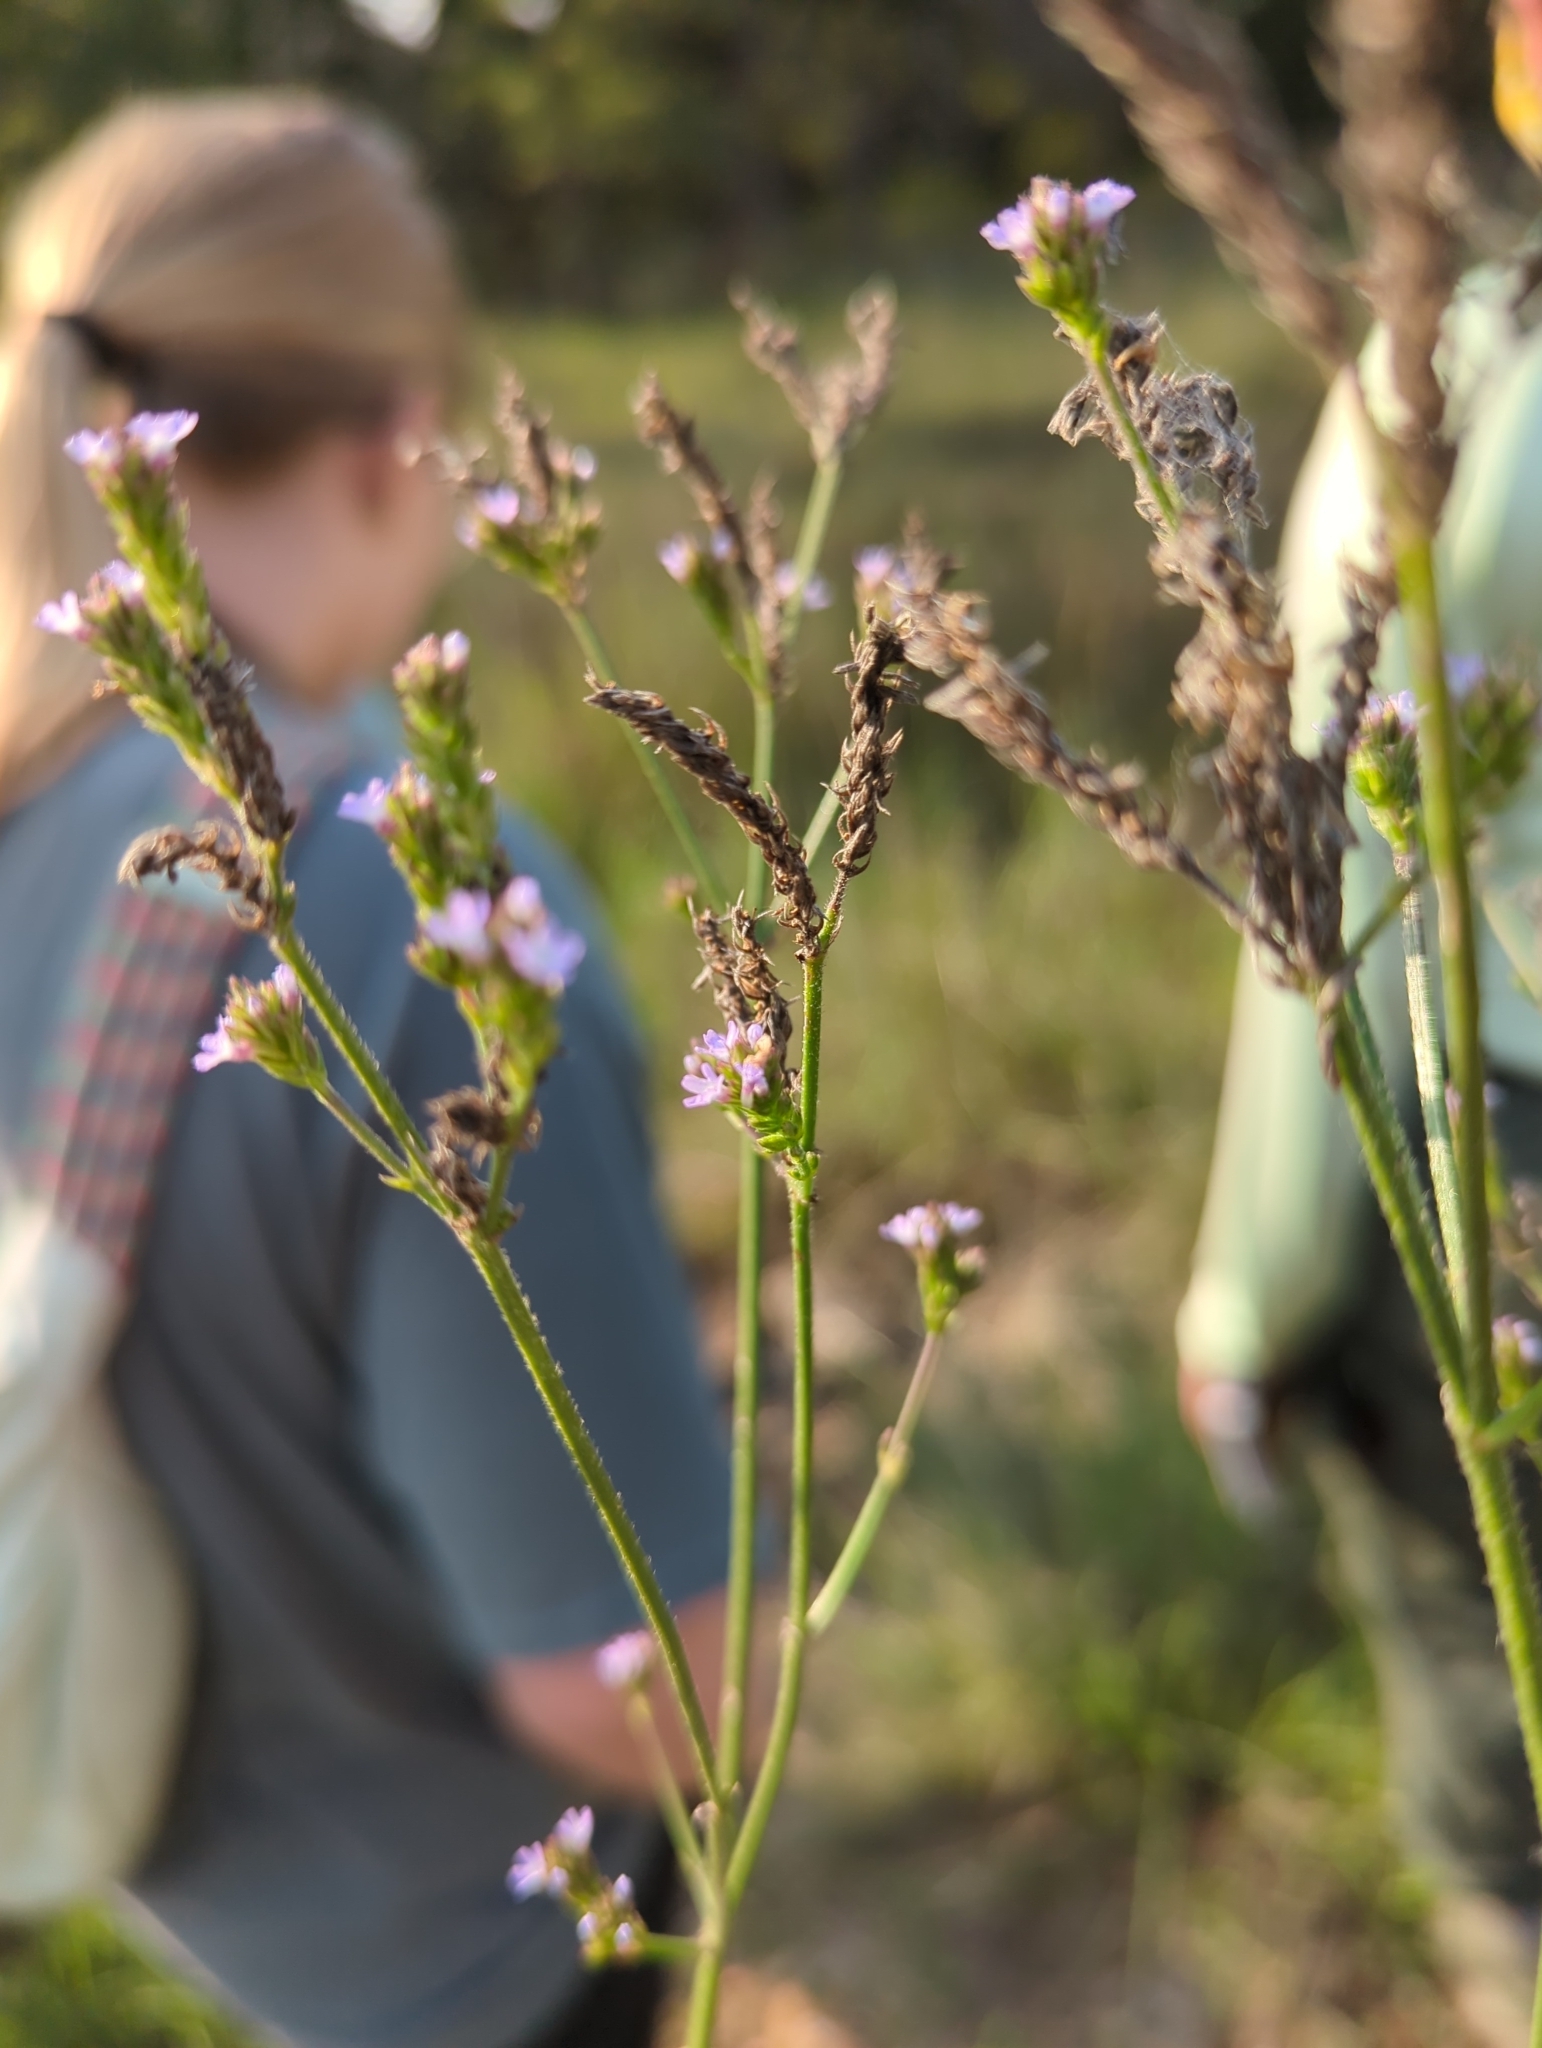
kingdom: Plantae
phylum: Tracheophyta
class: Magnoliopsida
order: Lamiales
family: Verbenaceae
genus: Verbena
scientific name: Verbena brasiliensis
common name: Brazilian vervain
